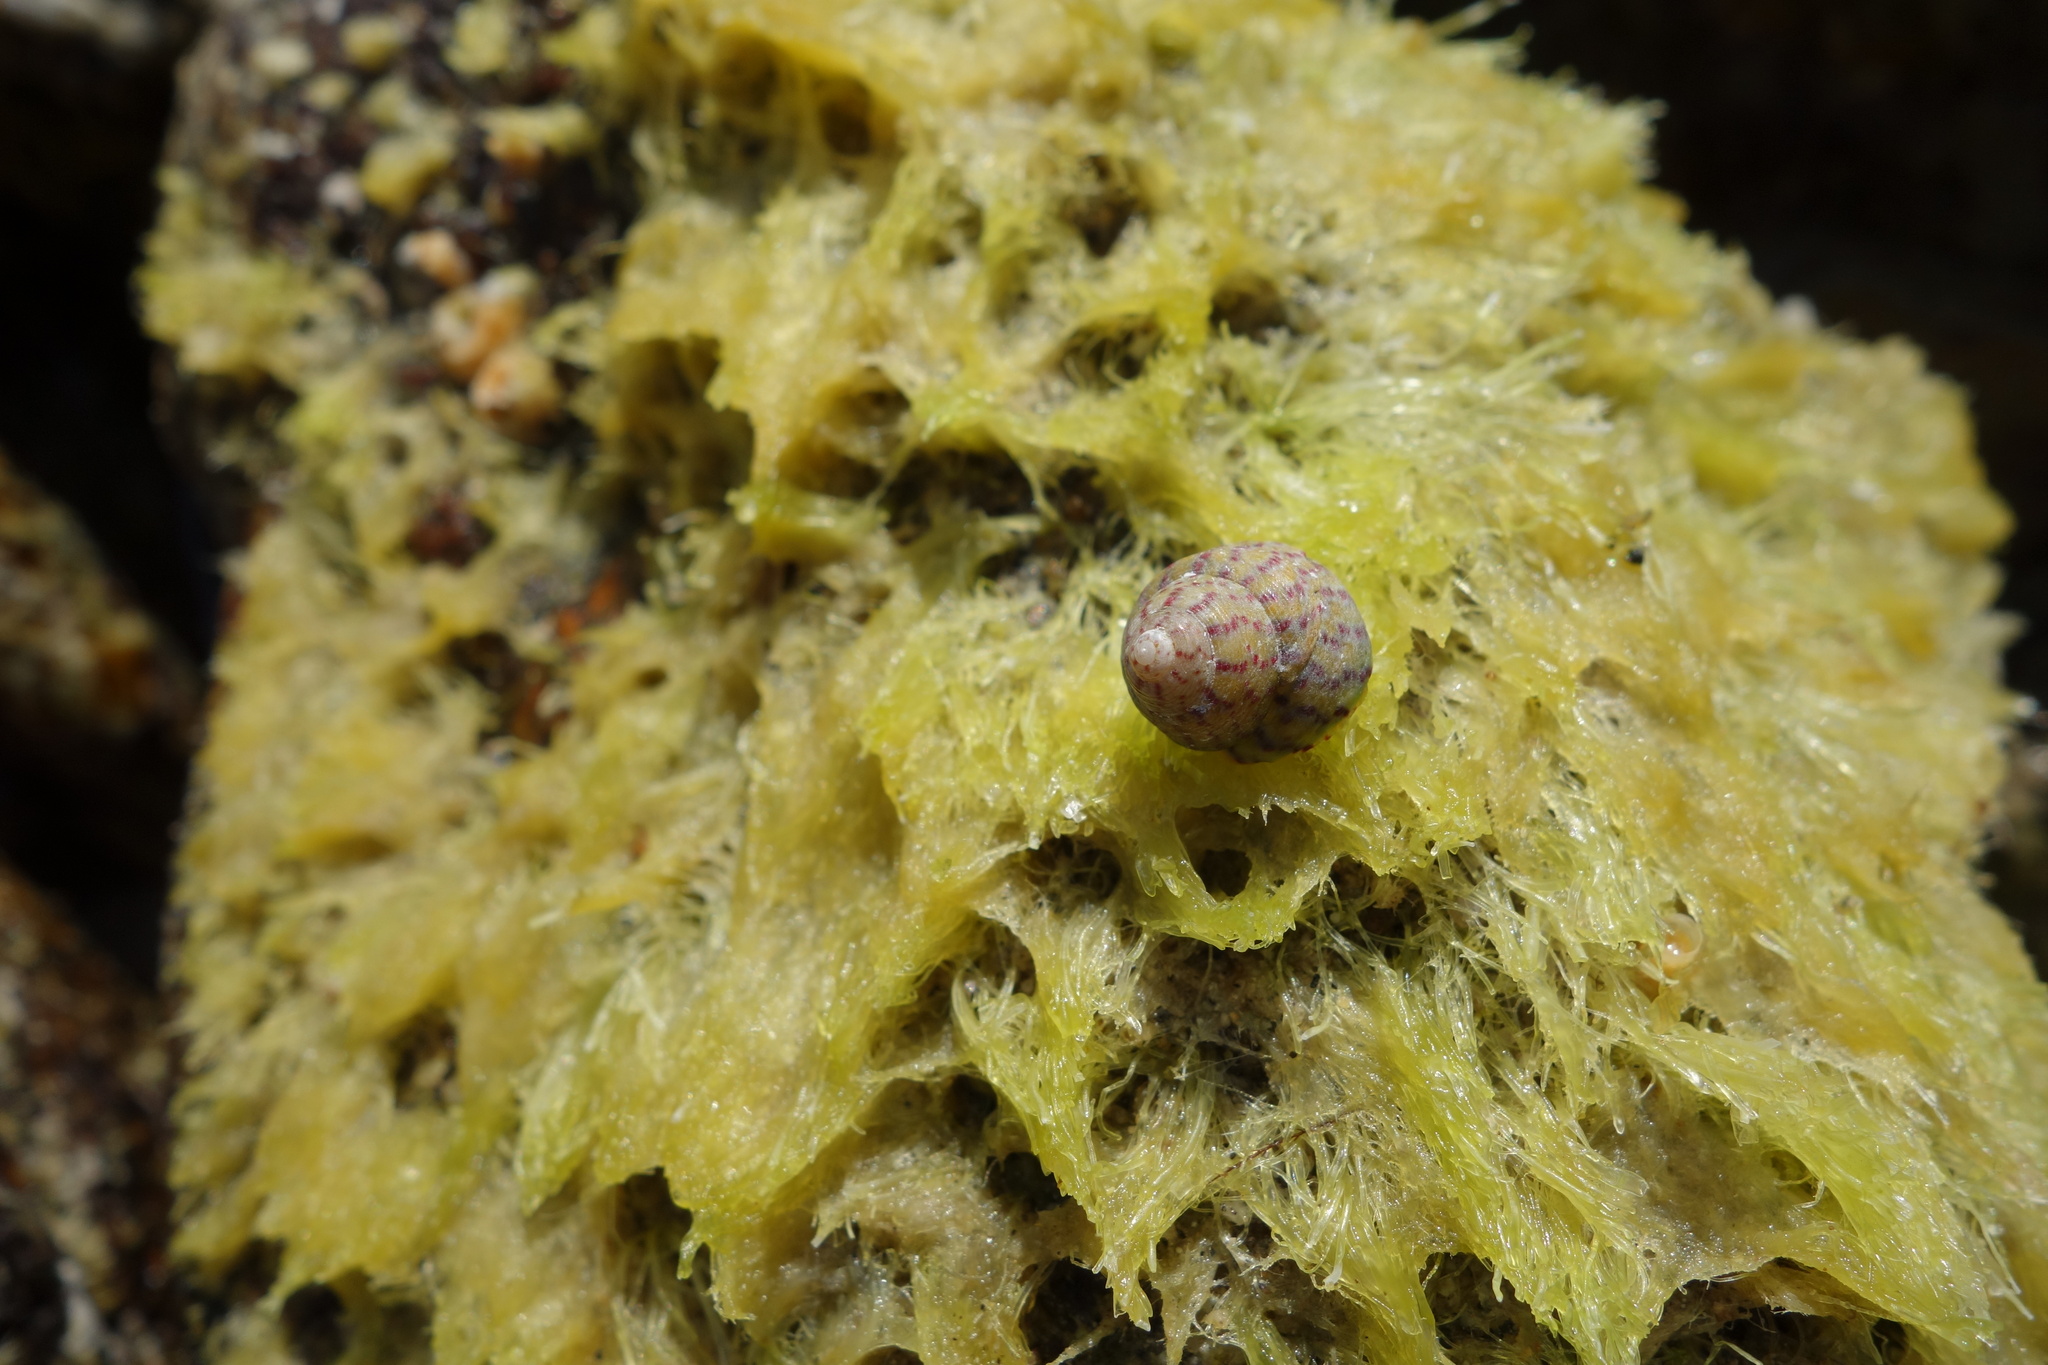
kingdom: Animalia
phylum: Mollusca
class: Gastropoda
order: Trochida
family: Trochidae
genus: Steromphala
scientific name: Steromphala divaricata
